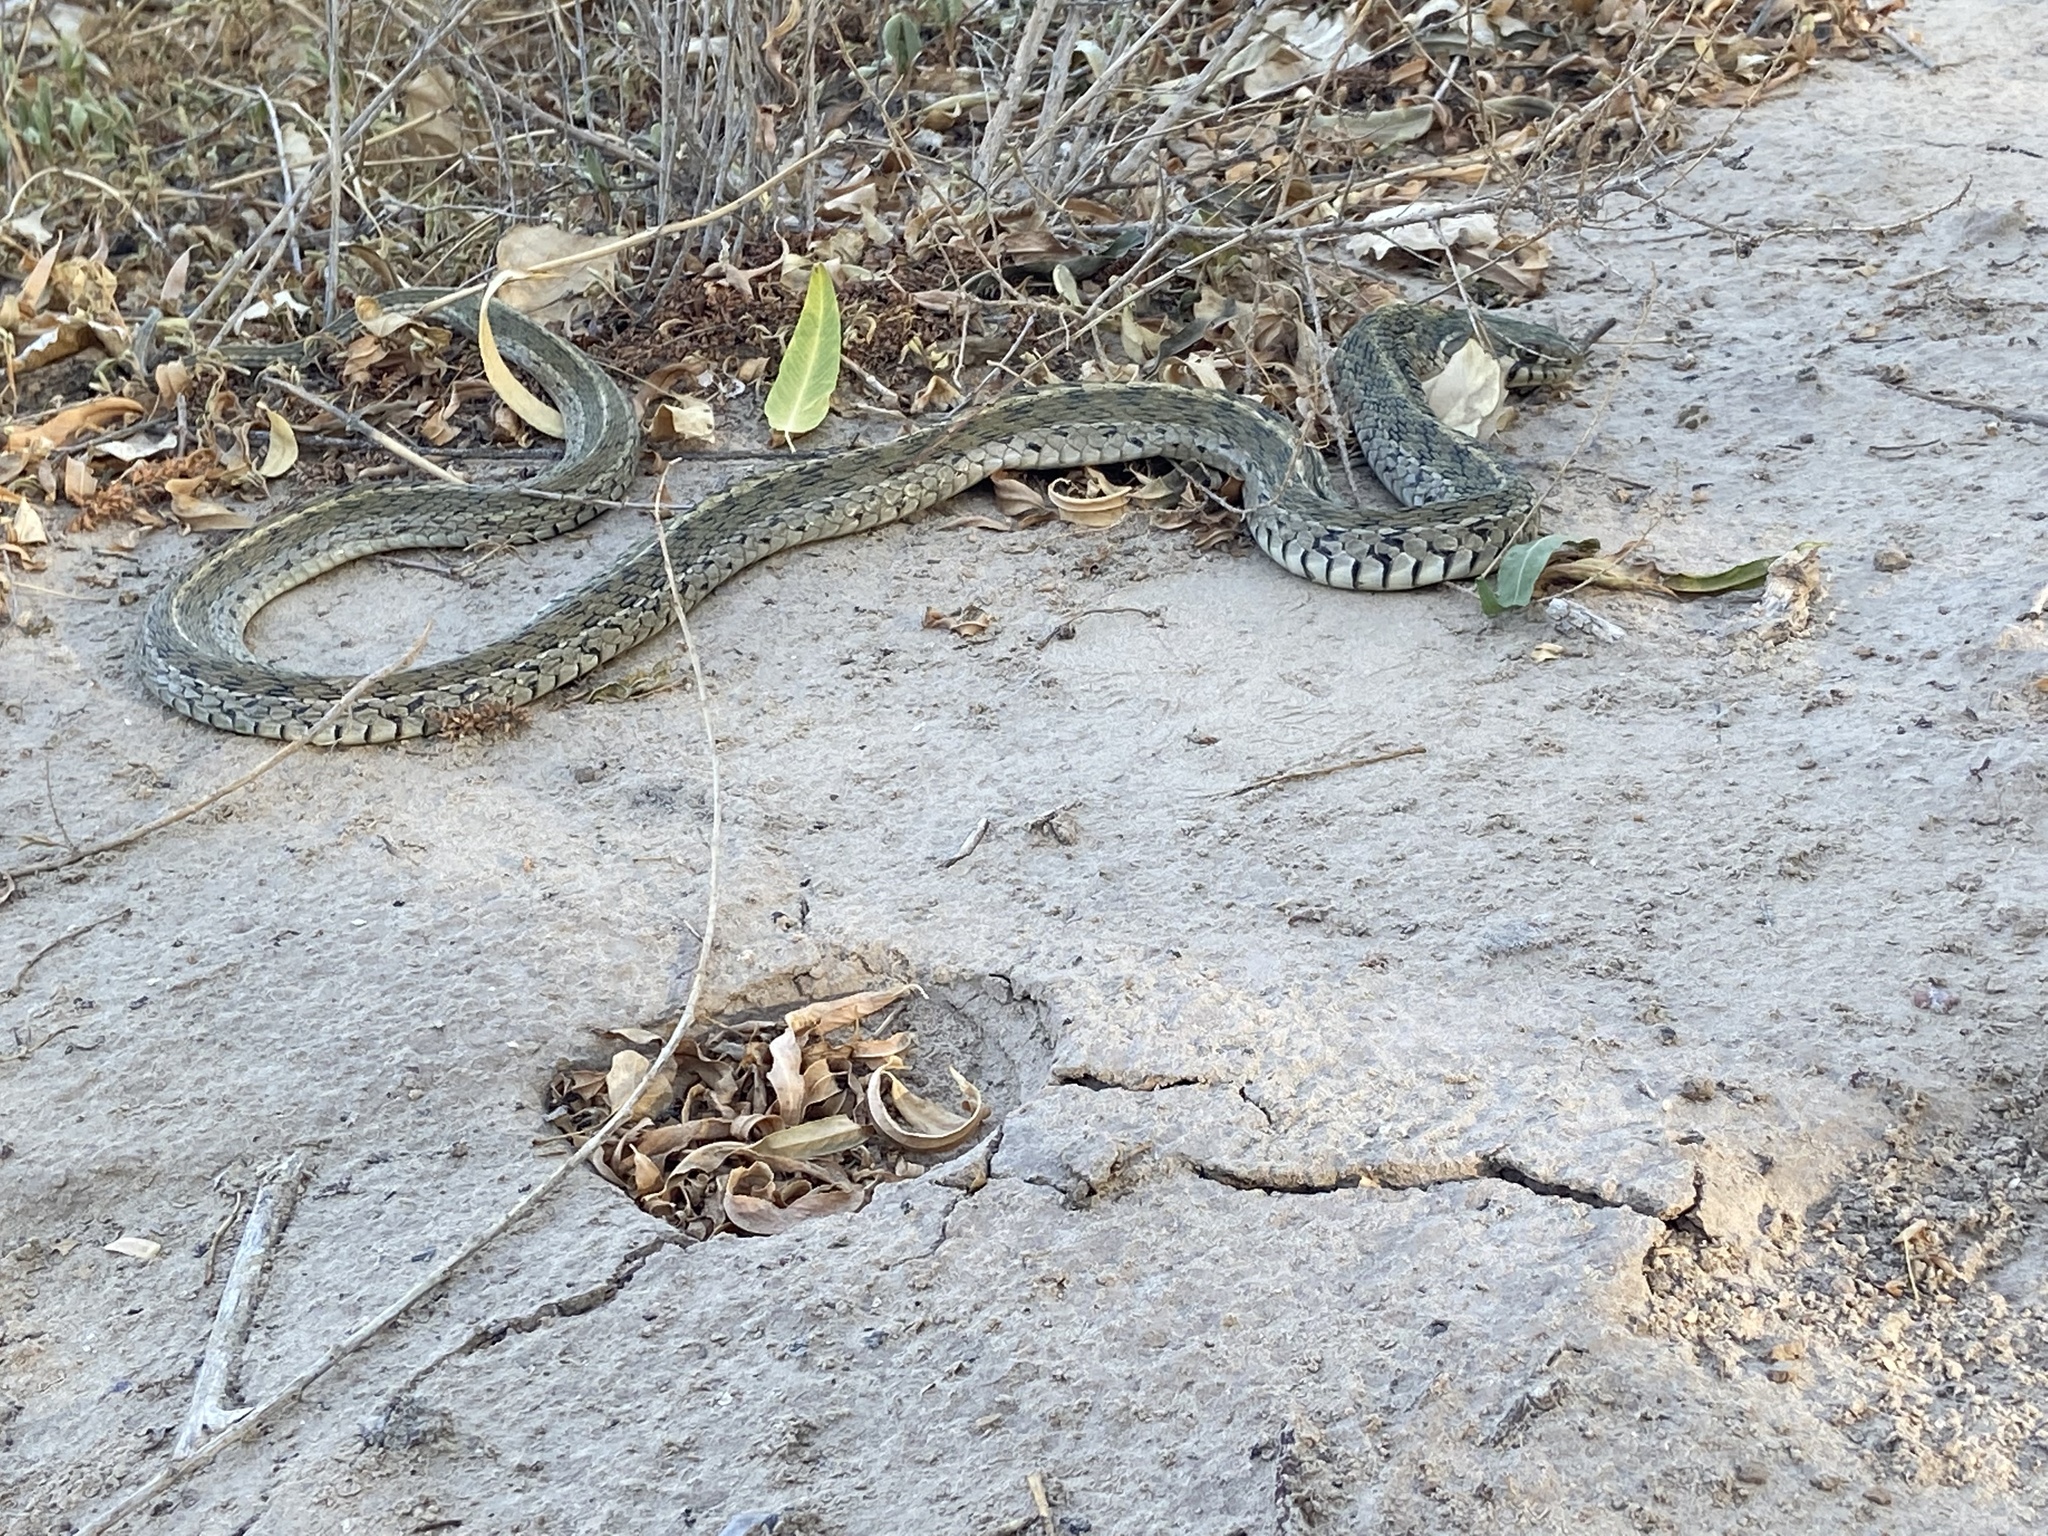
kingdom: Animalia
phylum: Chordata
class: Squamata
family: Colubridae
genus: Thamnophis
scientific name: Thamnophis marcianus
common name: Checkered garter snake
